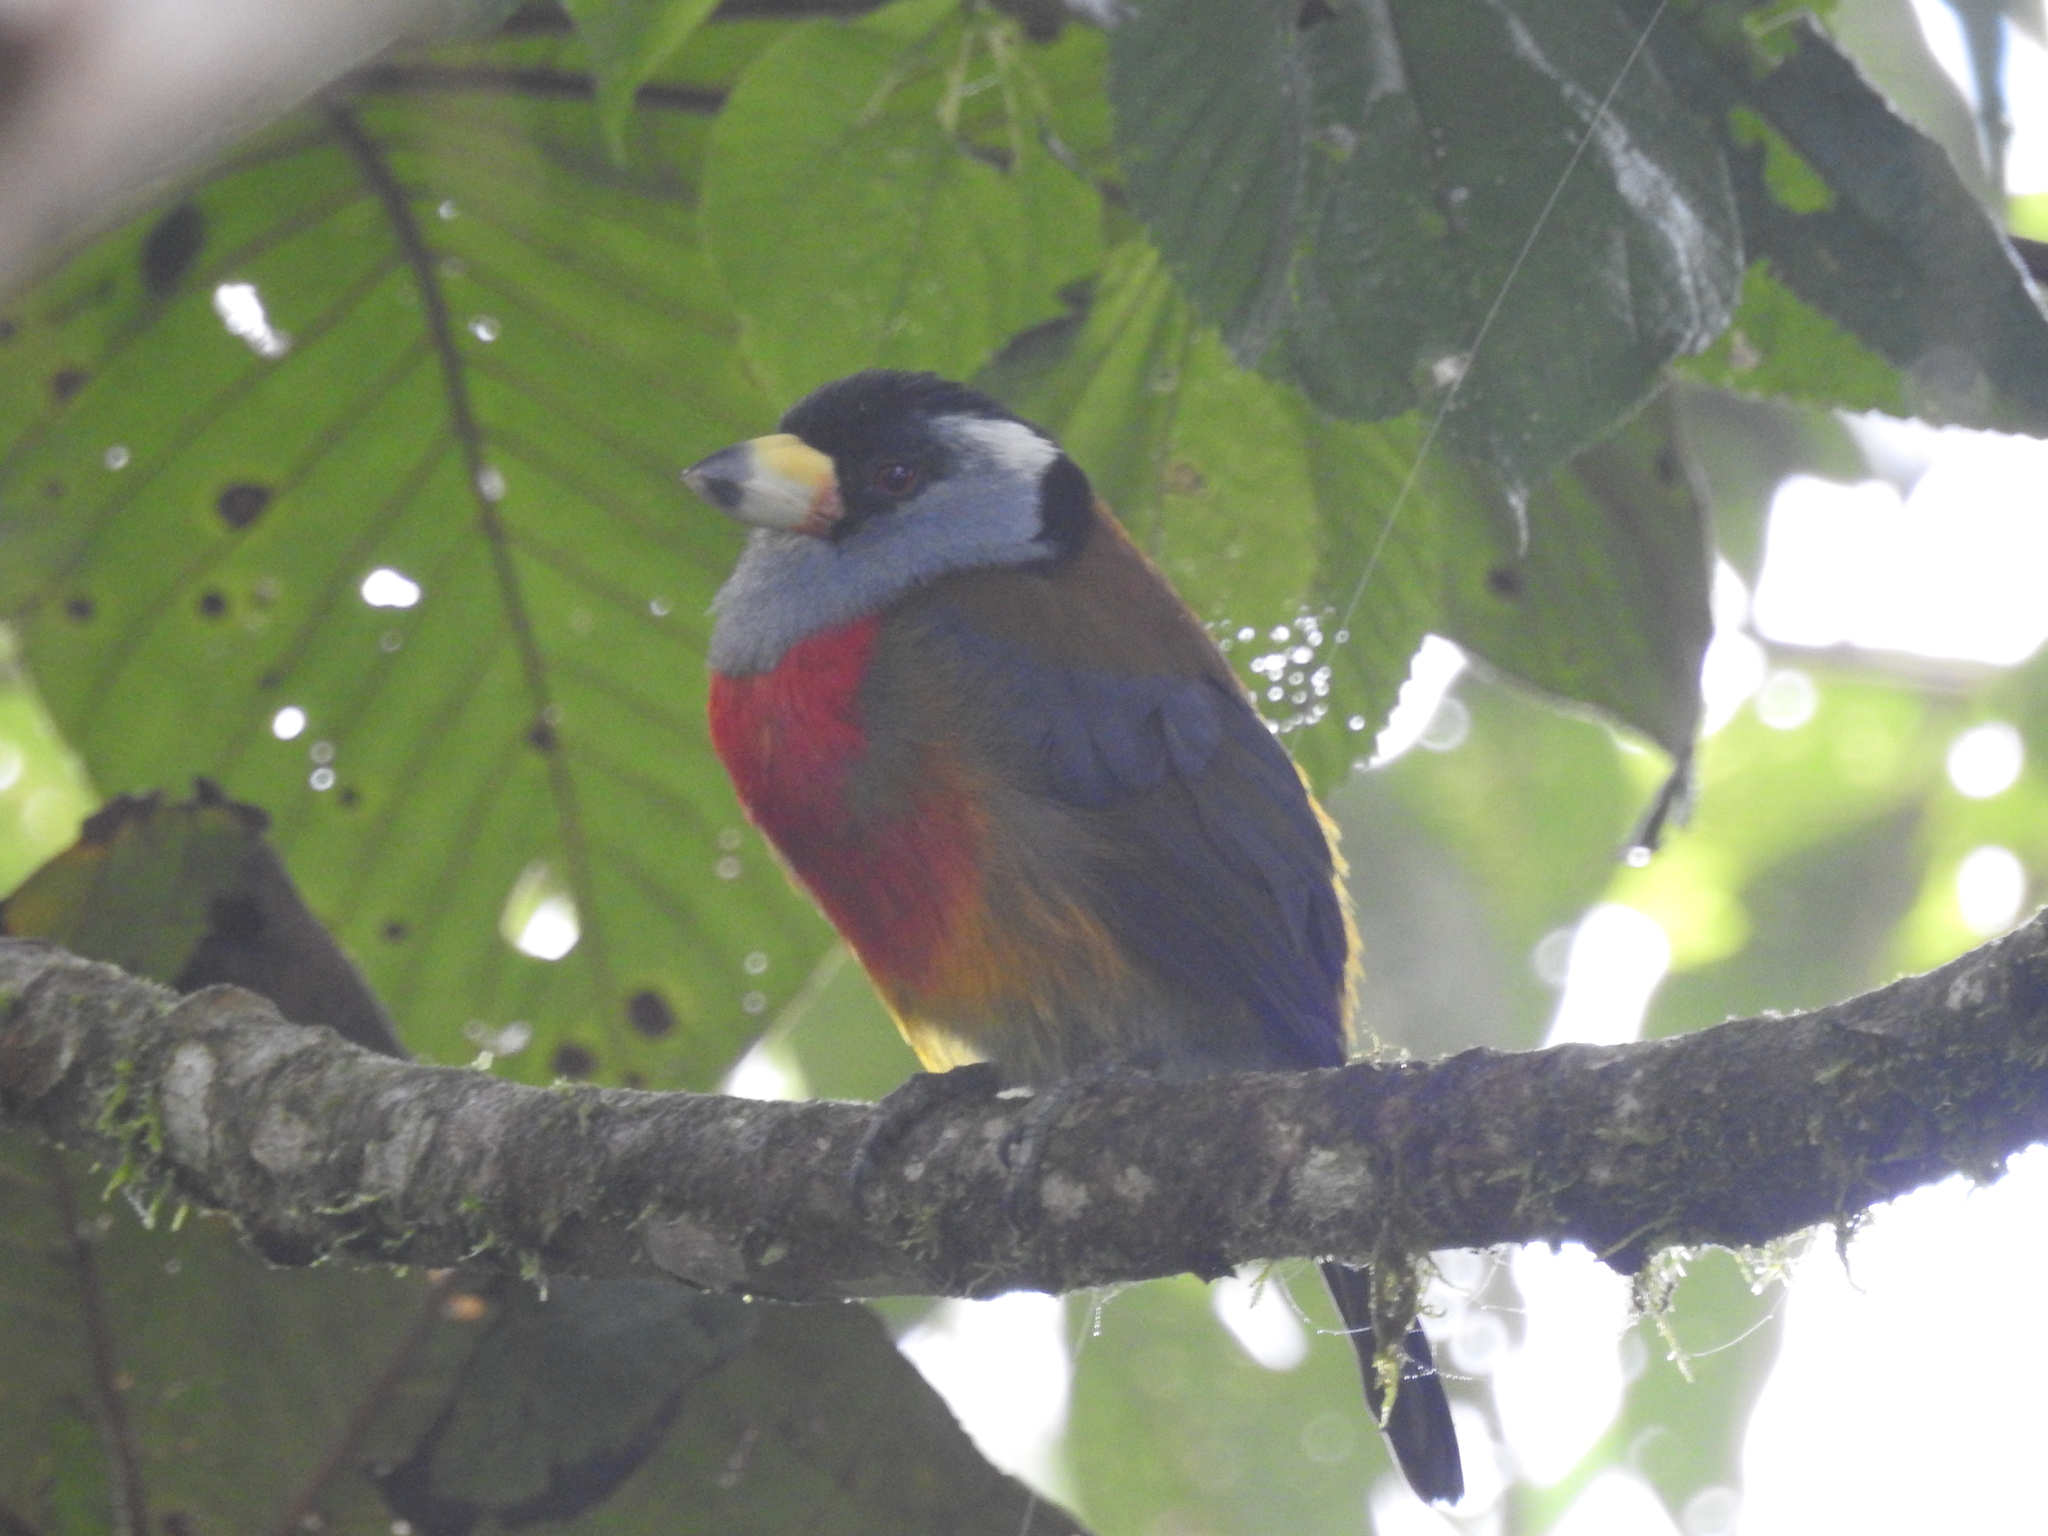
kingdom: Animalia
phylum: Chordata
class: Aves
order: Piciformes
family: Semnornithidae
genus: Semnornis
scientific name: Semnornis ramphastinus
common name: Toucan barbet
